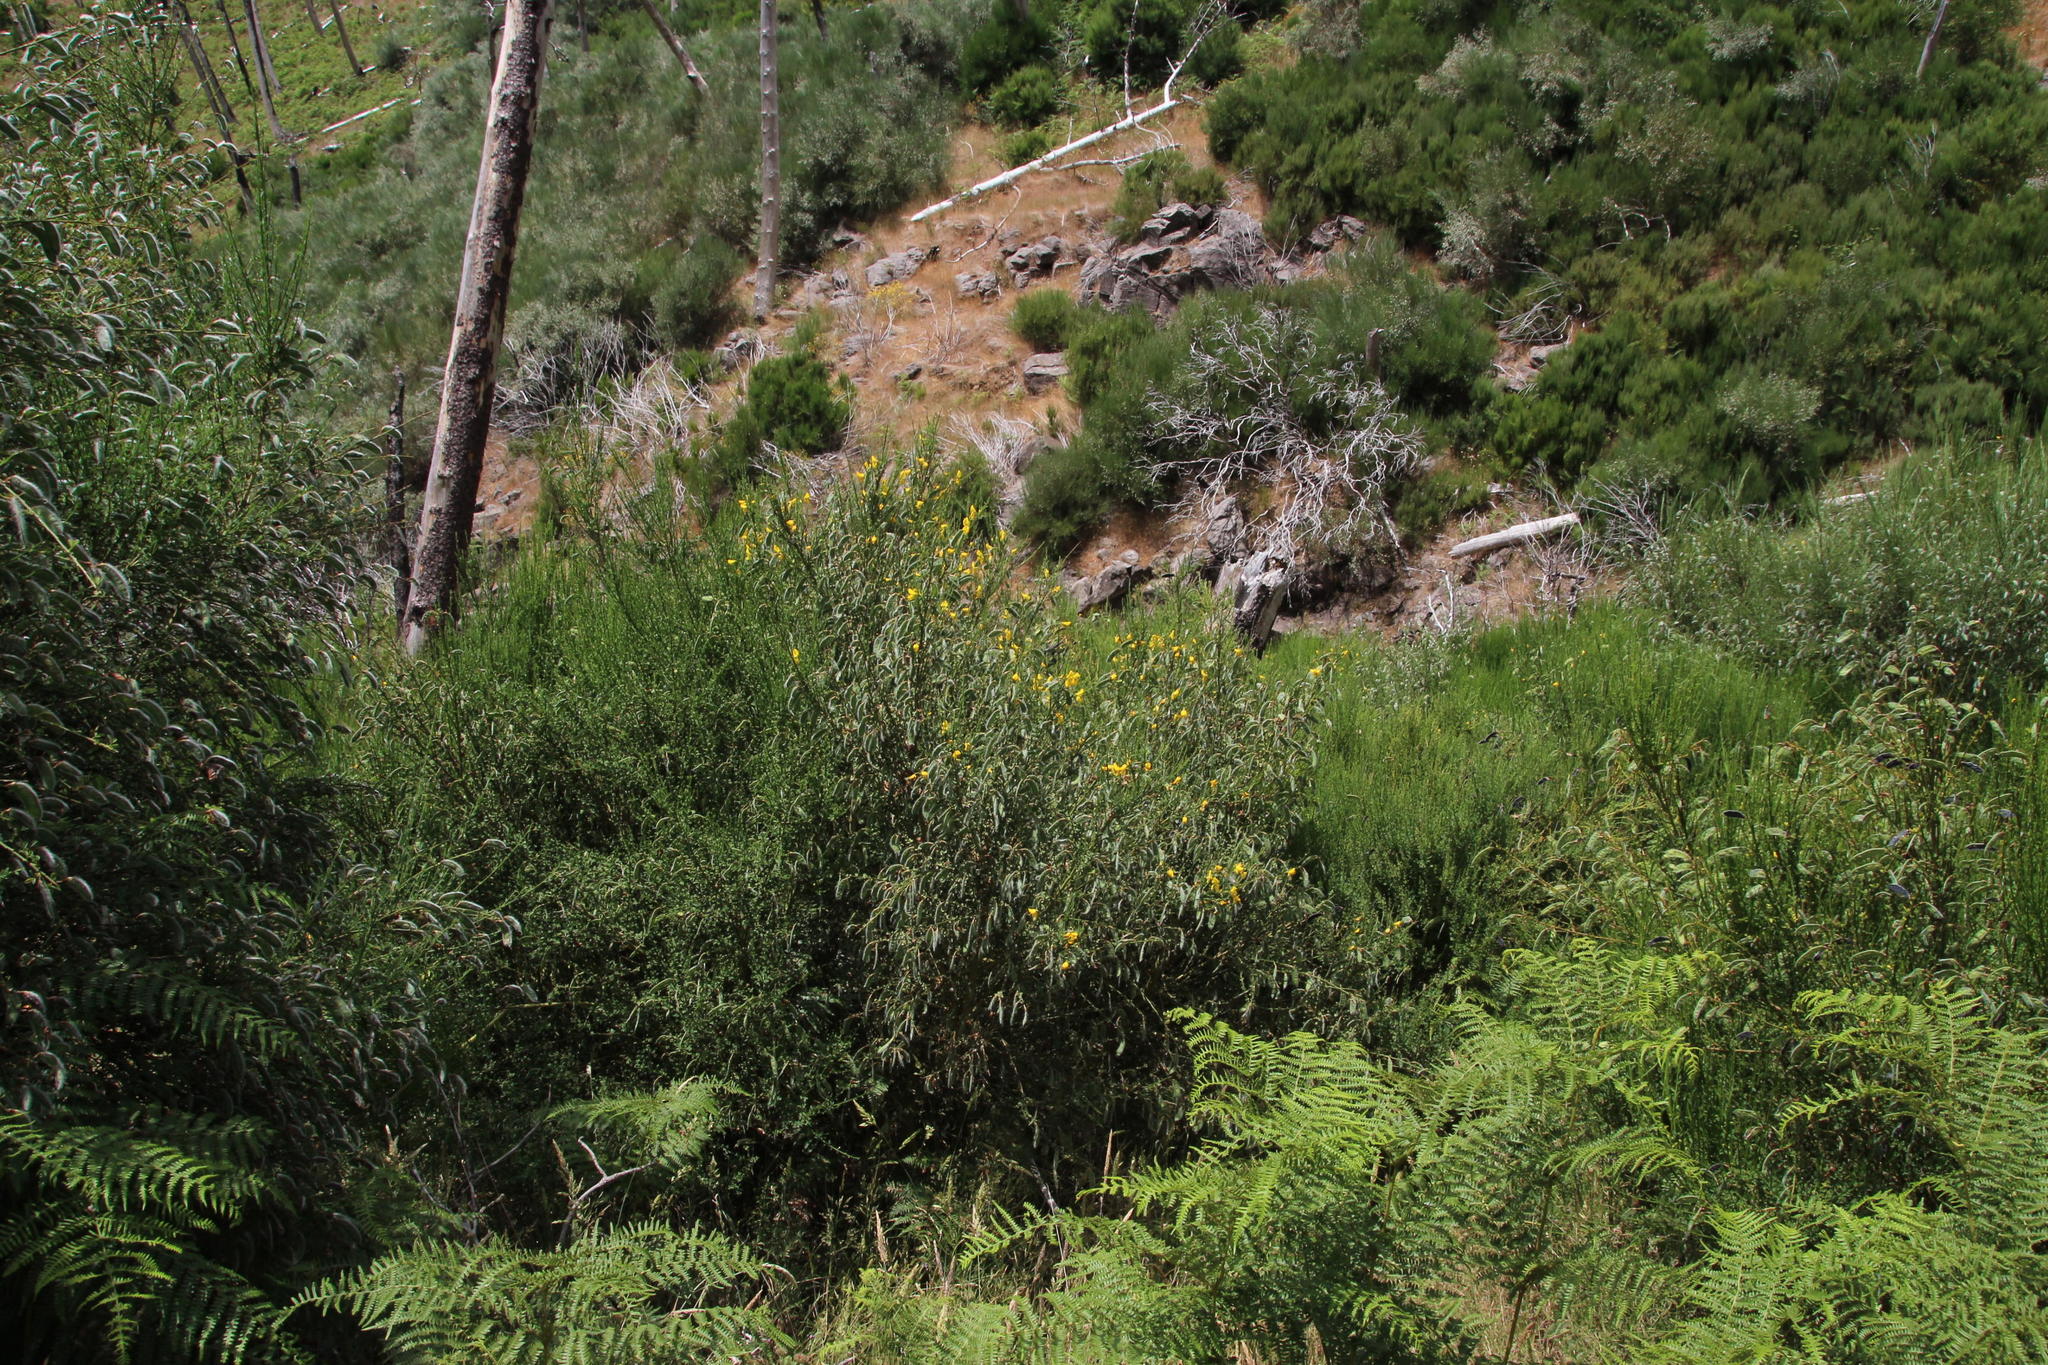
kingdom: Plantae
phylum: Tracheophyta
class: Magnoliopsida
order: Fabales
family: Fabaceae
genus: Cytisus
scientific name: Cytisus scoparius
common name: Scotch broom
